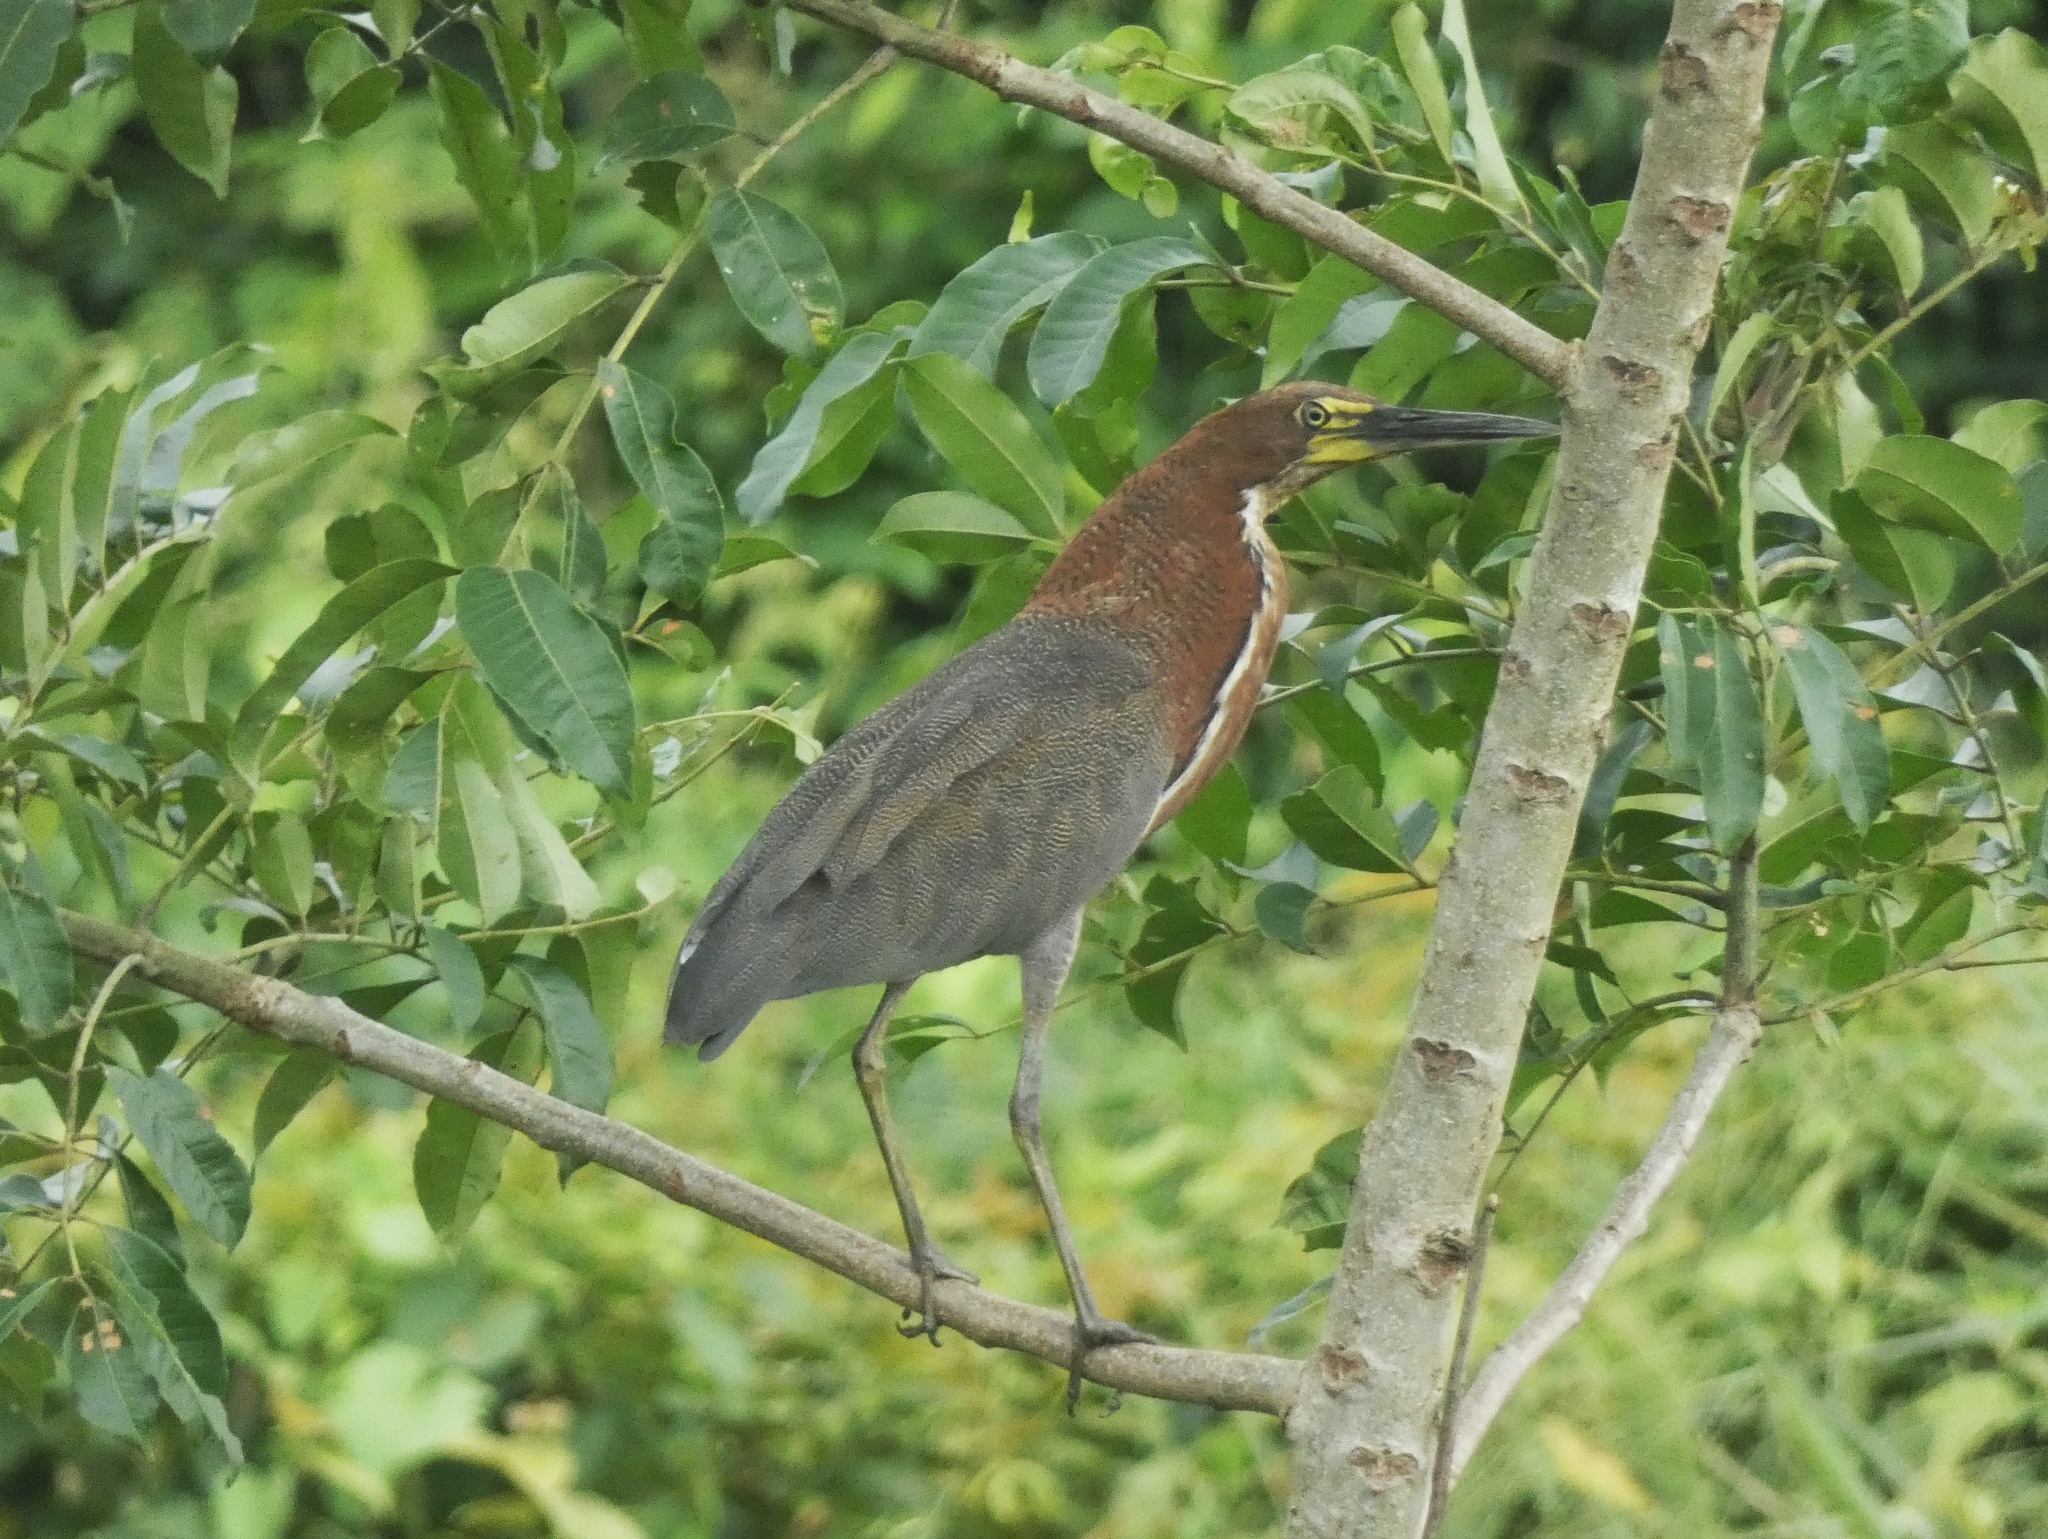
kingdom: Animalia
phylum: Chordata
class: Aves
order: Pelecaniformes
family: Ardeidae
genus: Tigrisoma
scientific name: Tigrisoma lineatum
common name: Rufescent tiger-heron
